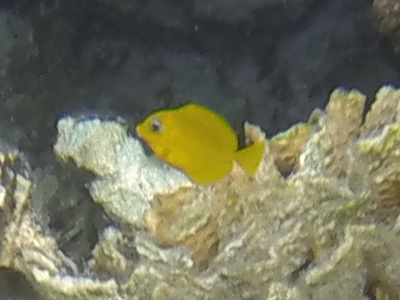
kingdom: Animalia
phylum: Chordata
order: Perciformes
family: Acanthuridae
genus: Acanthurus
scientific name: Acanthurus coeruleus
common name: Blue tang
